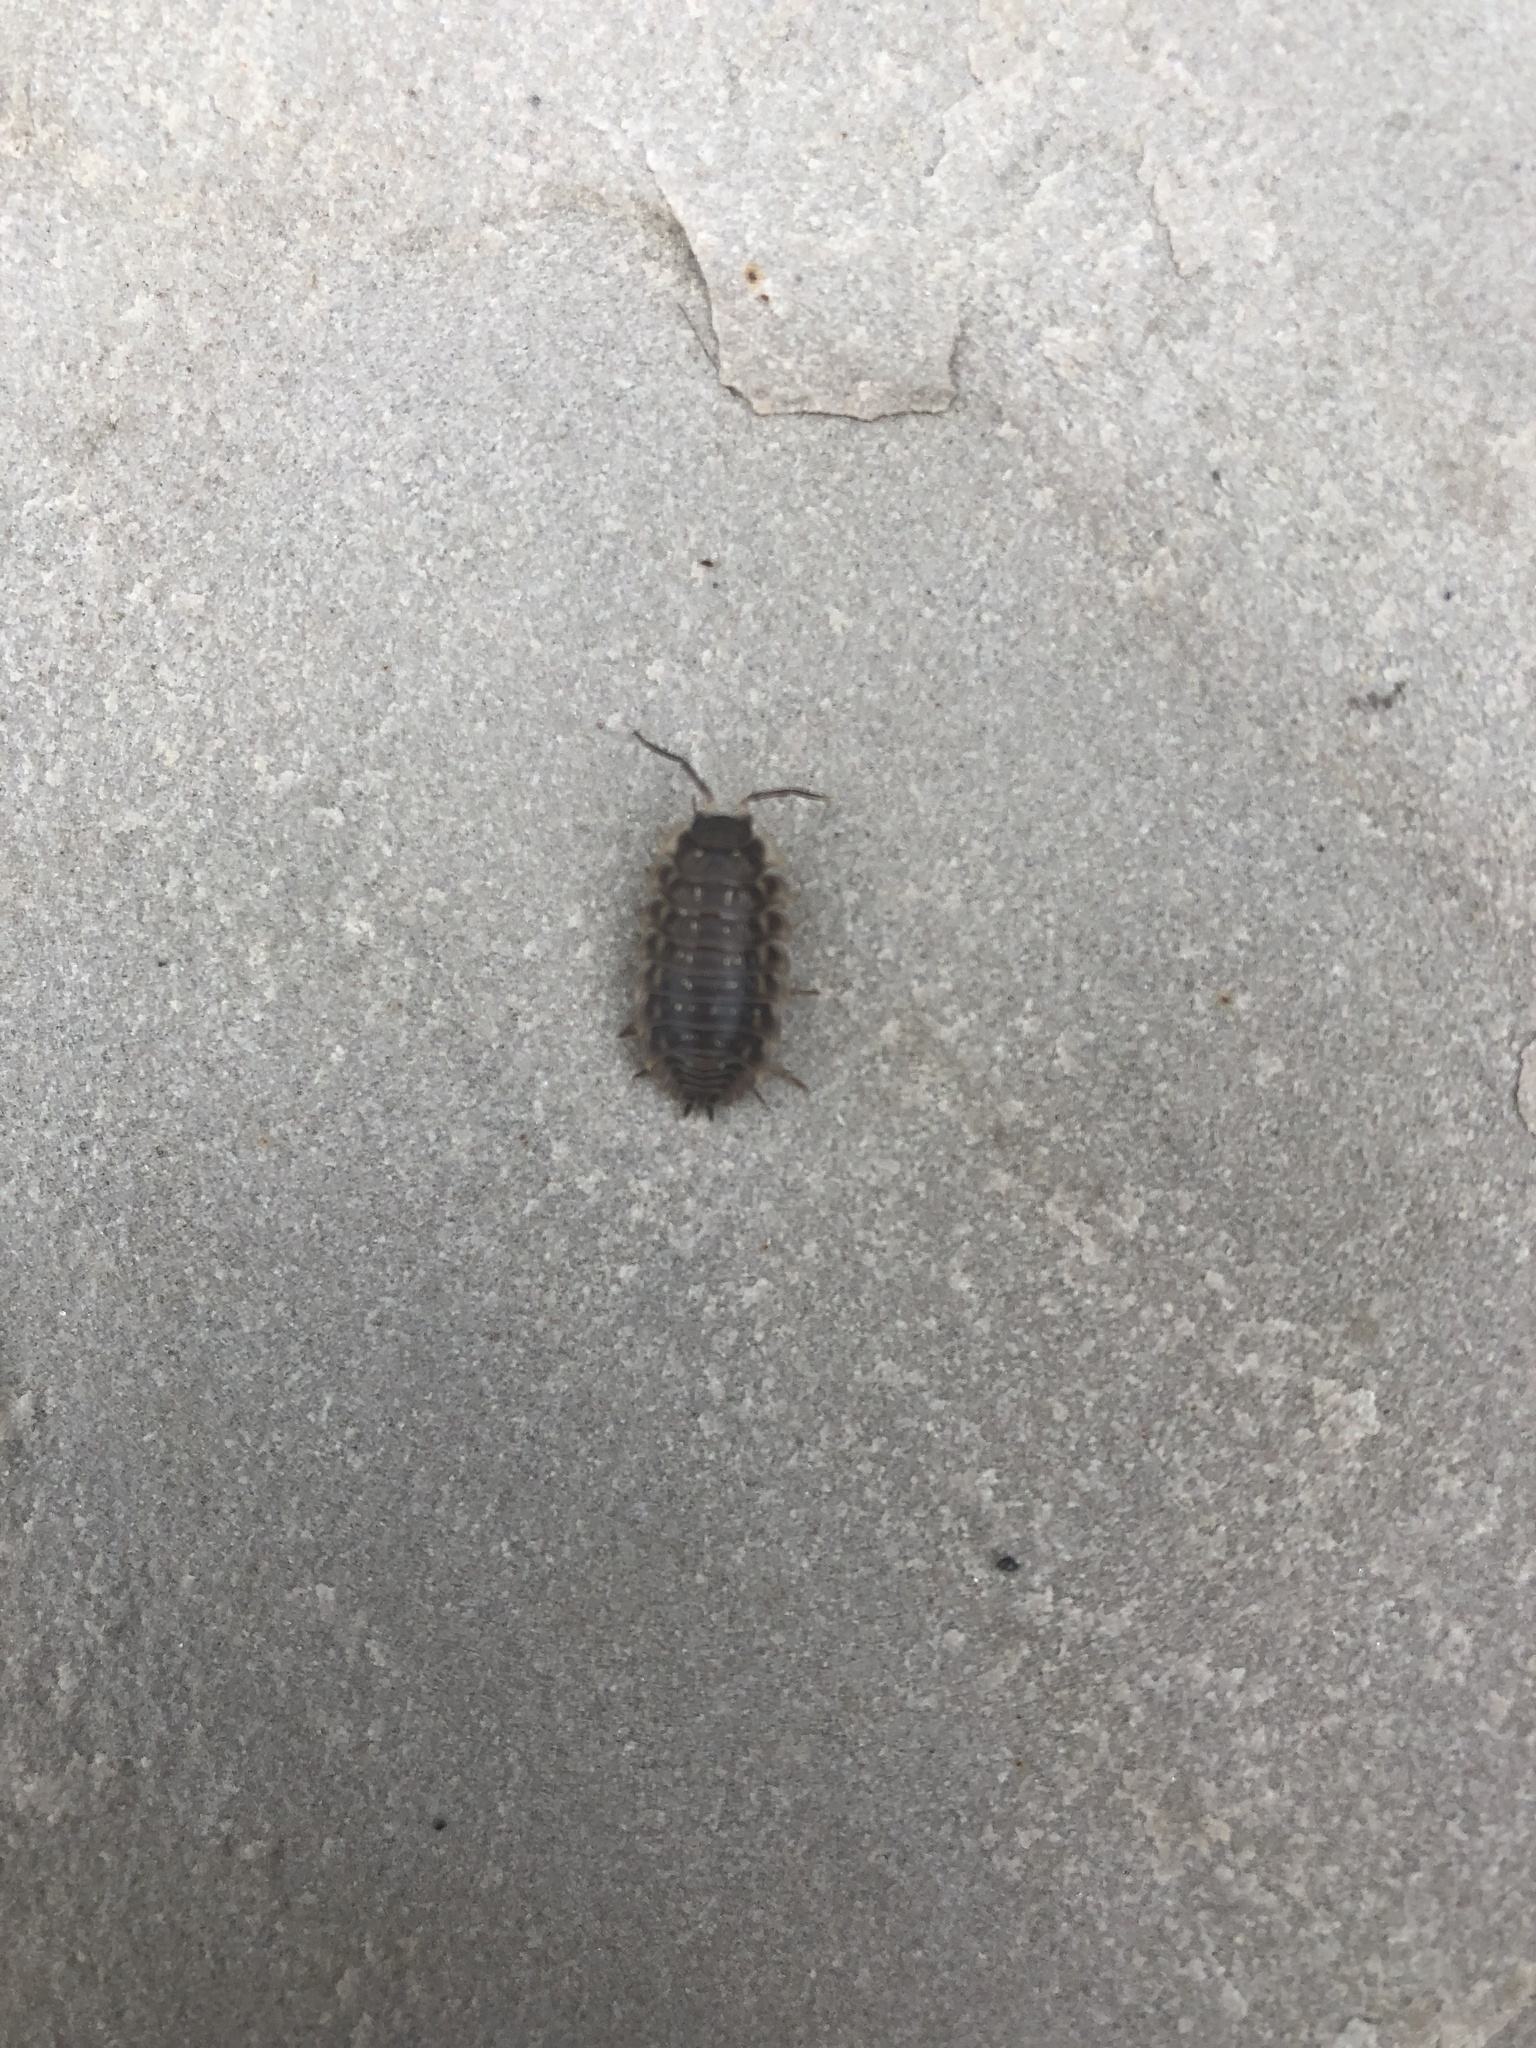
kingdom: Animalia
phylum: Arthropoda
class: Malacostraca
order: Isopoda
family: Oniscidae
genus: Oniscus
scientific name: Oniscus asellus
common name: Common shiny woodlouse
